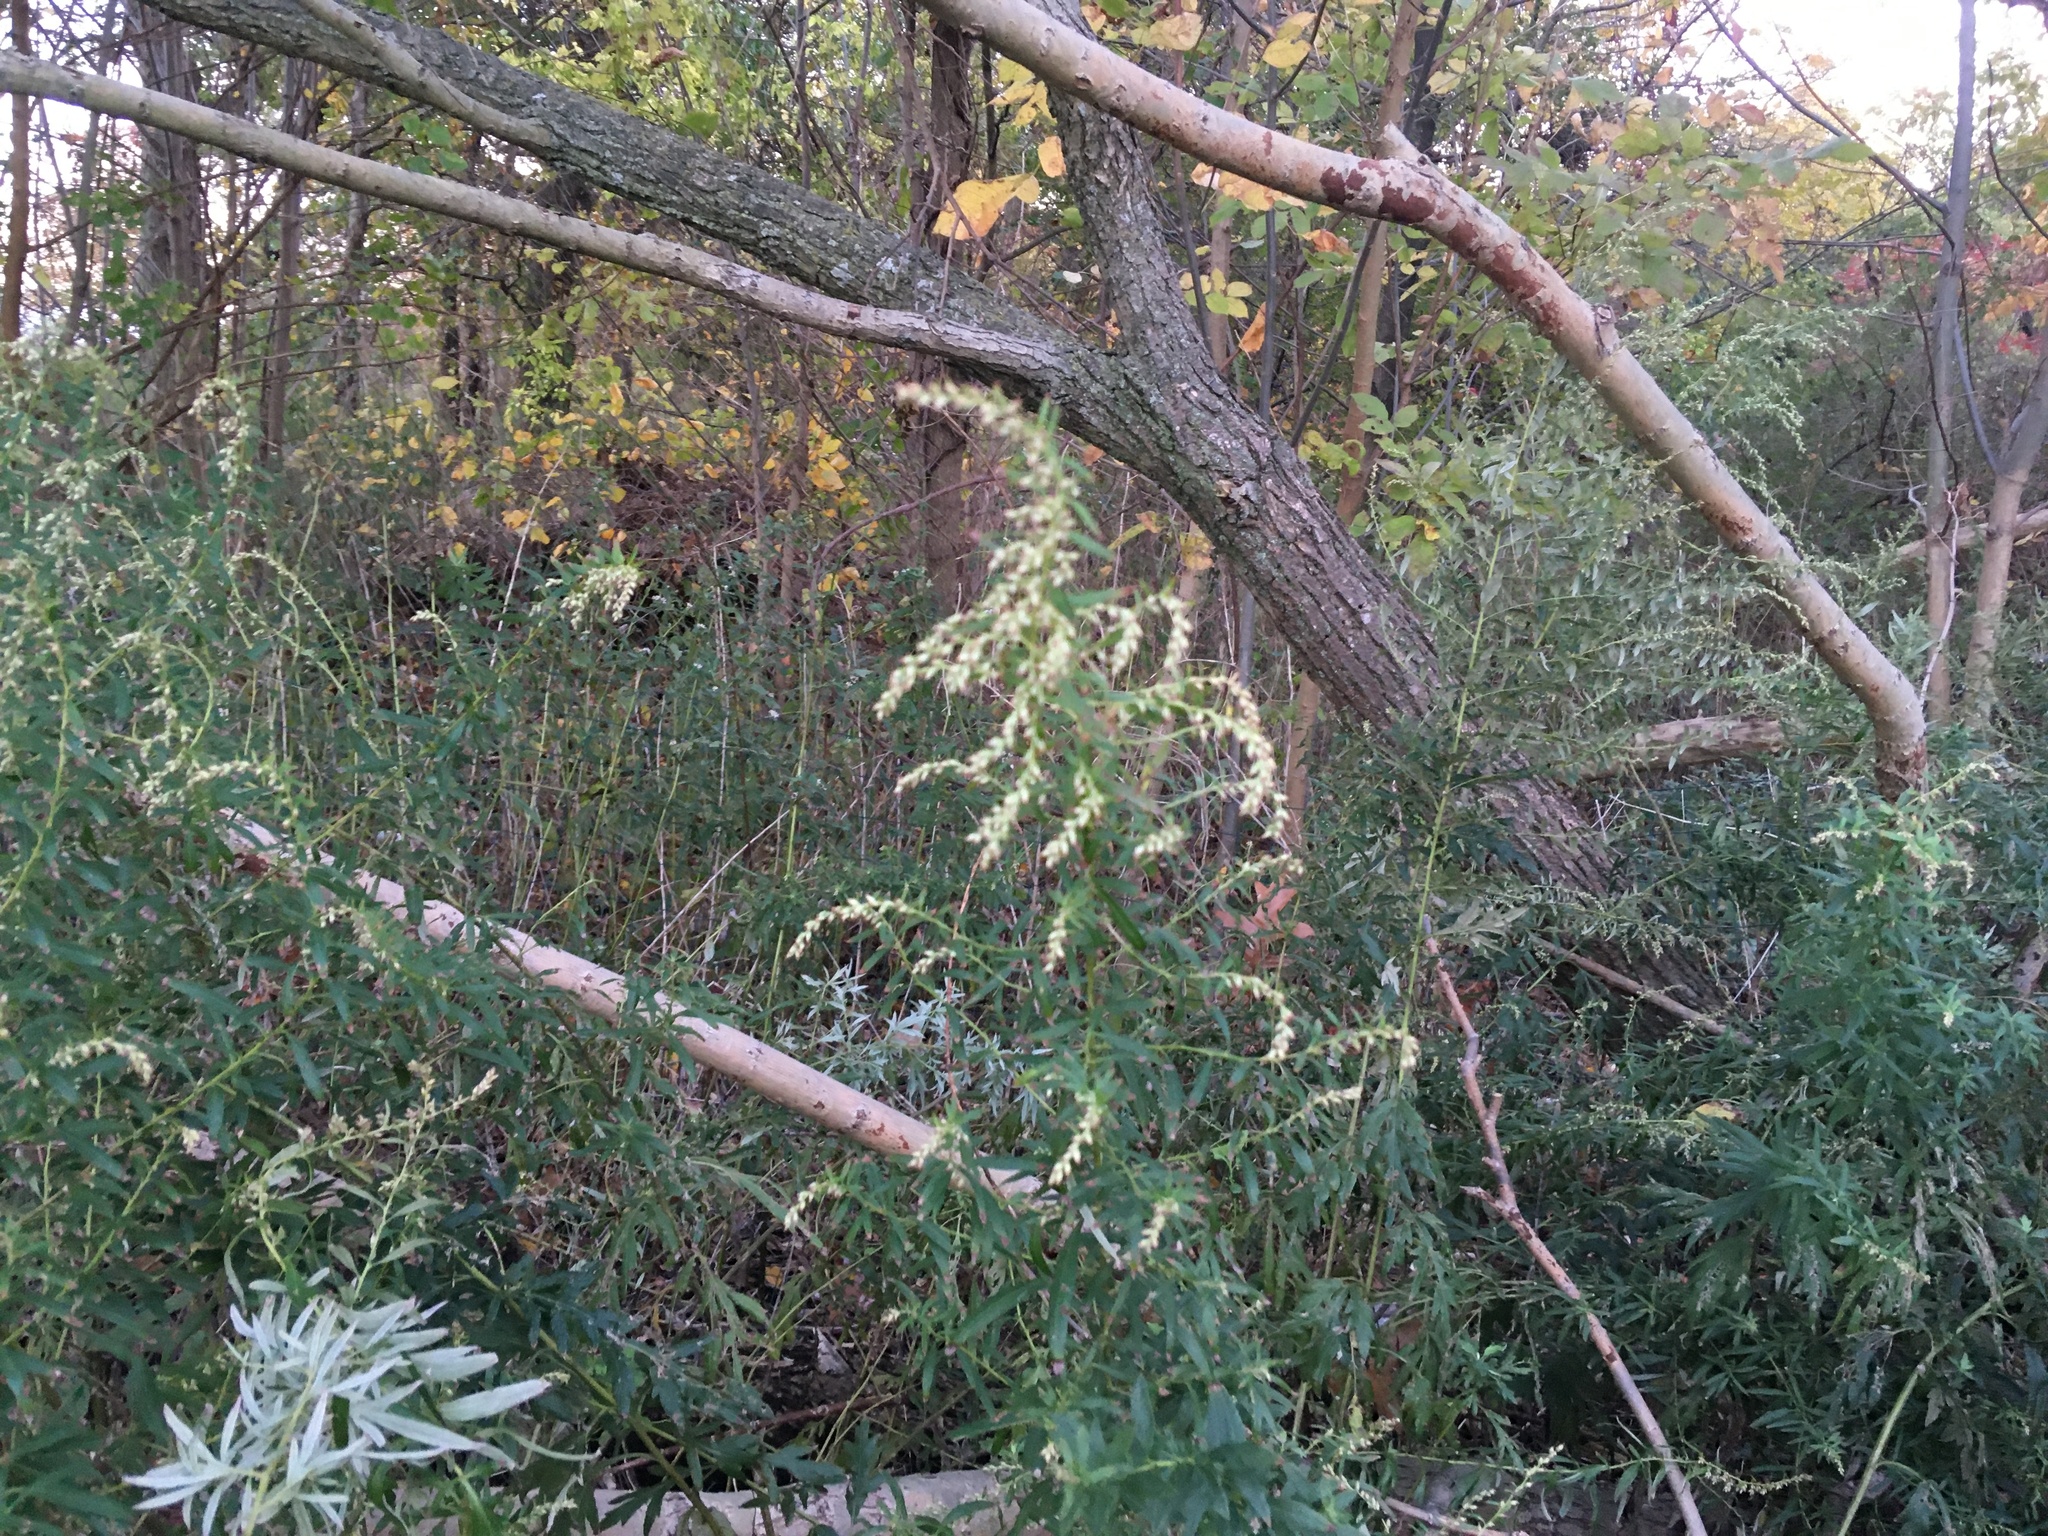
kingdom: Plantae
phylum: Tracheophyta
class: Magnoliopsida
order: Asterales
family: Asteraceae
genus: Artemisia
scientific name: Artemisia vulgaris
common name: Mugwort
